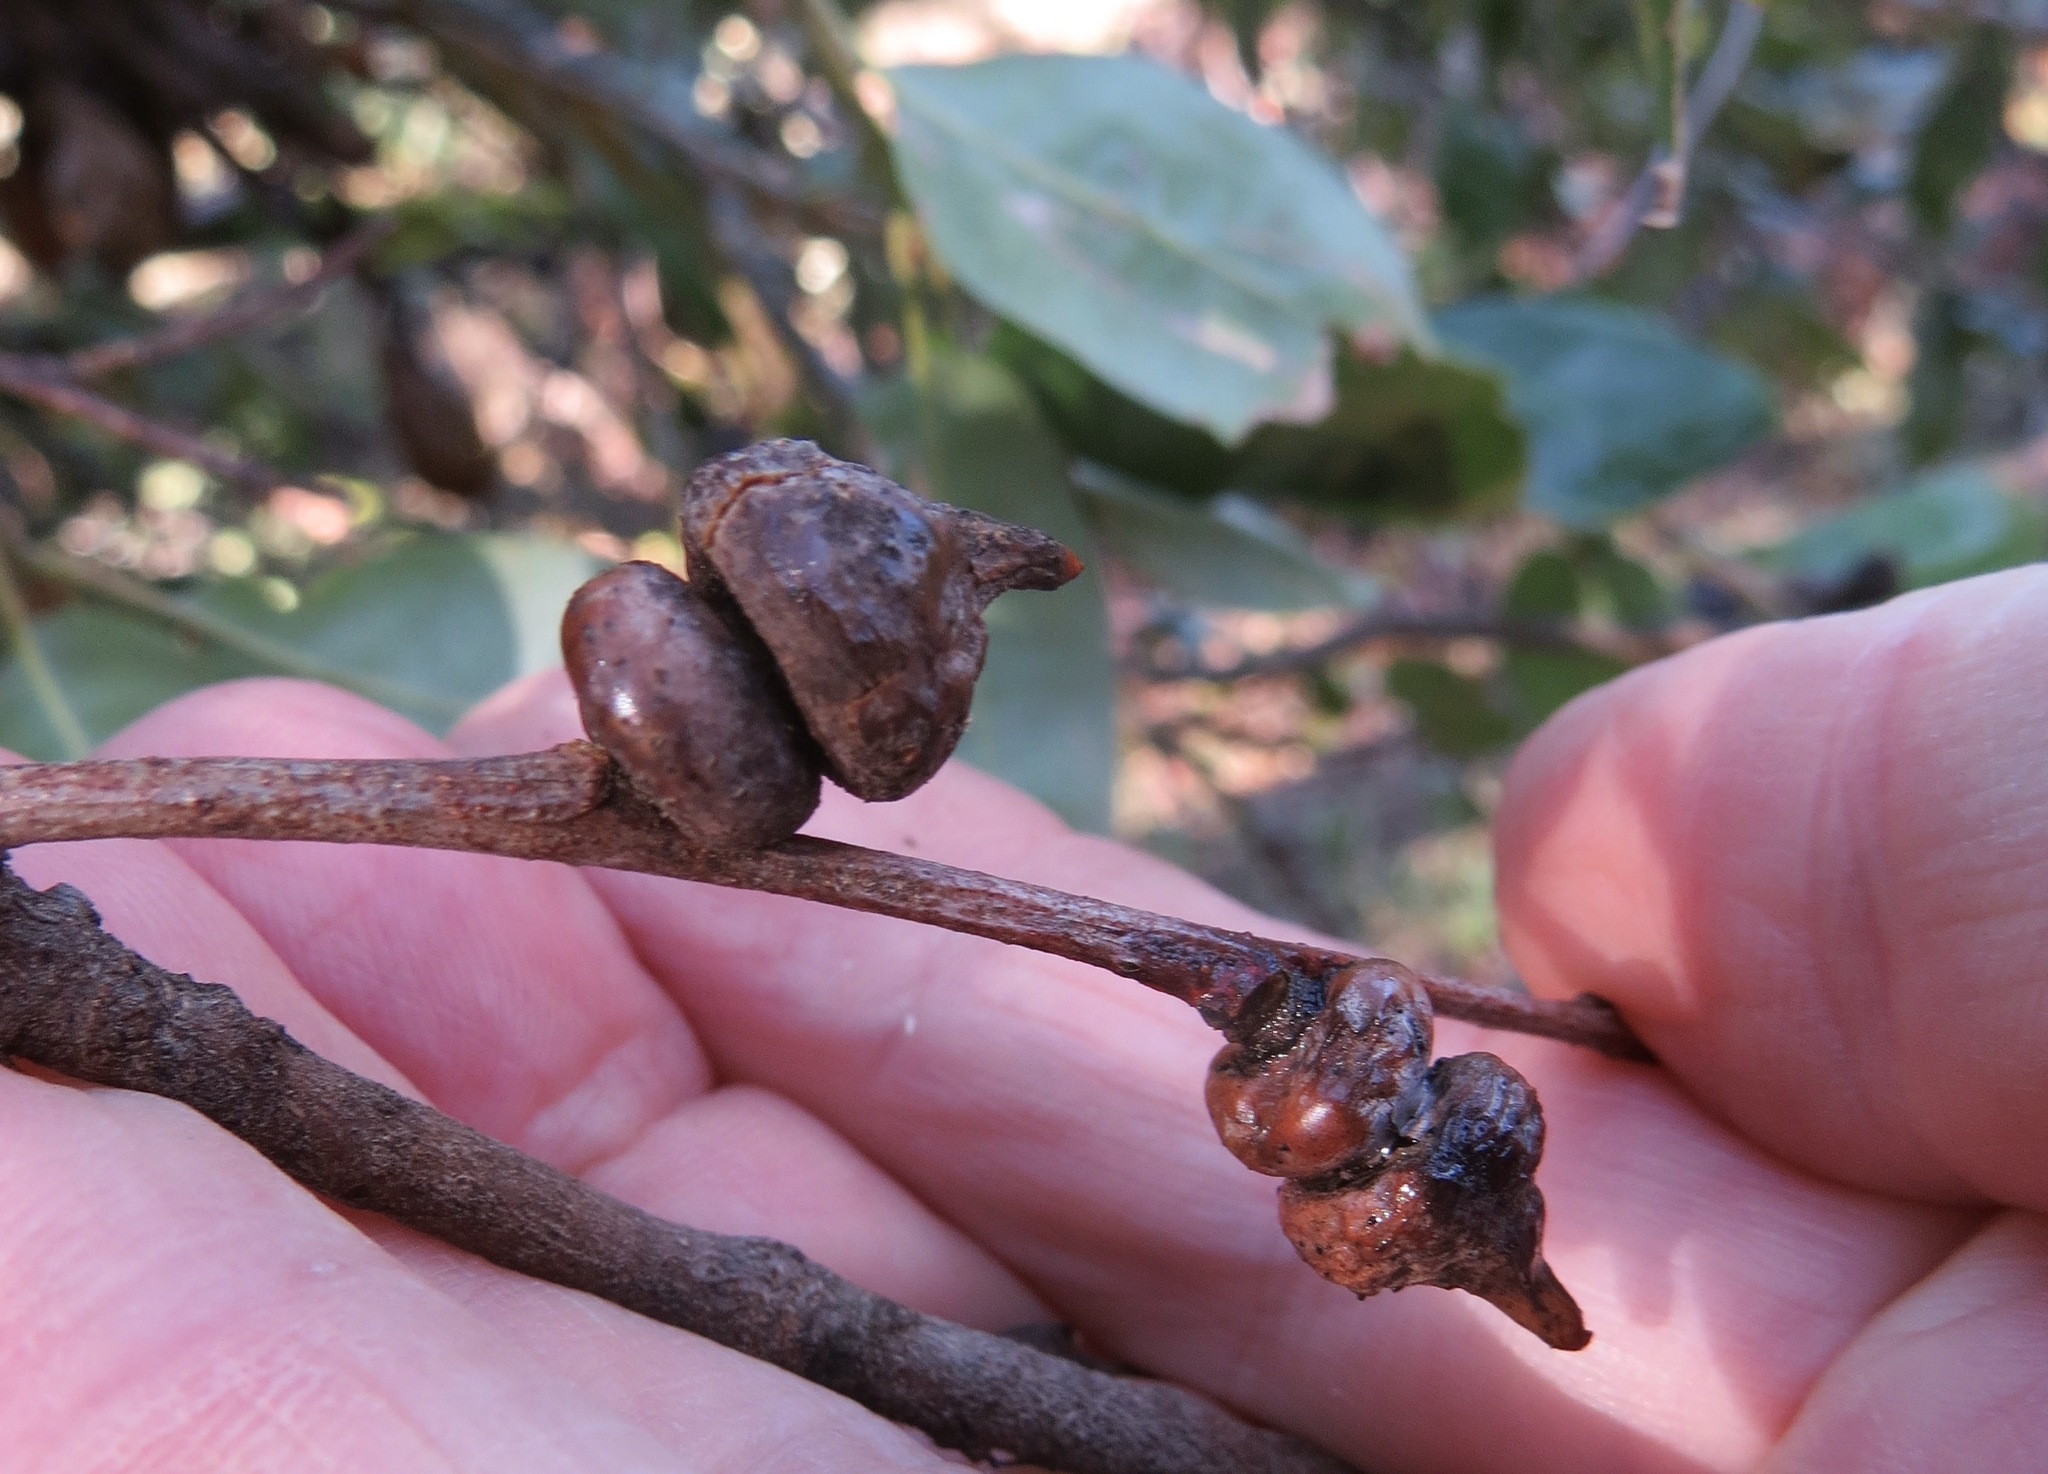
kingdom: Animalia
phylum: Arthropoda
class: Insecta
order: Hymenoptera
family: Cynipidae
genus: Heteroecus
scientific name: Heteroecus
